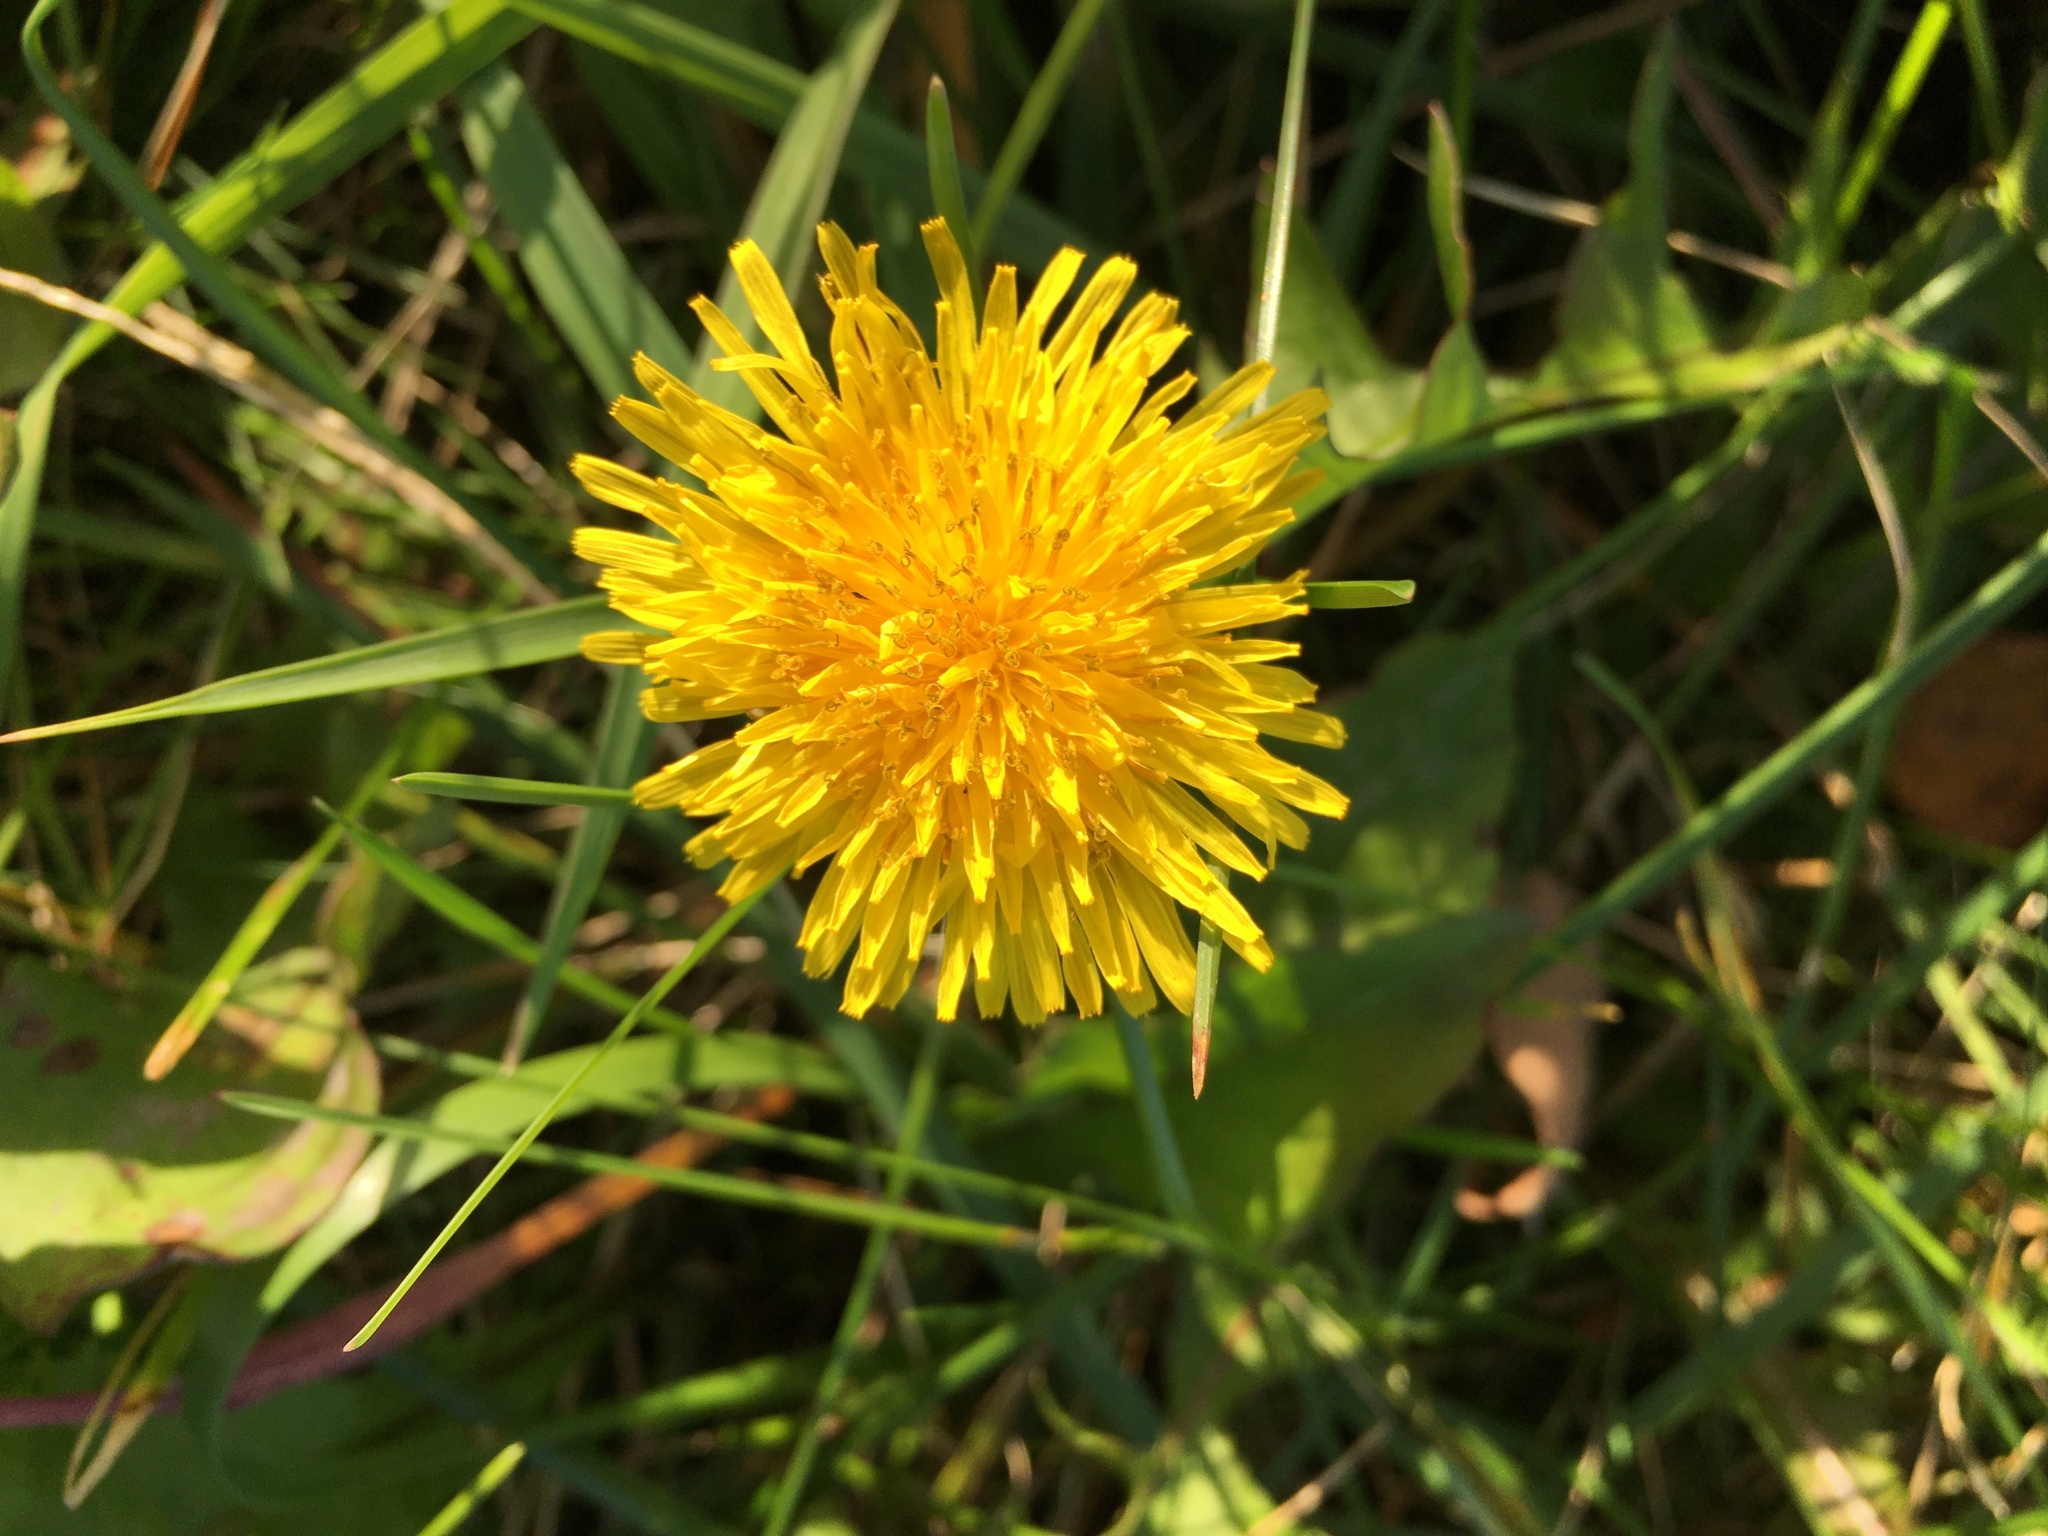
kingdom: Plantae
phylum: Tracheophyta
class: Magnoliopsida
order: Asterales
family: Asteraceae
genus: Taraxacum
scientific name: Taraxacum officinale
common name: Common dandelion
